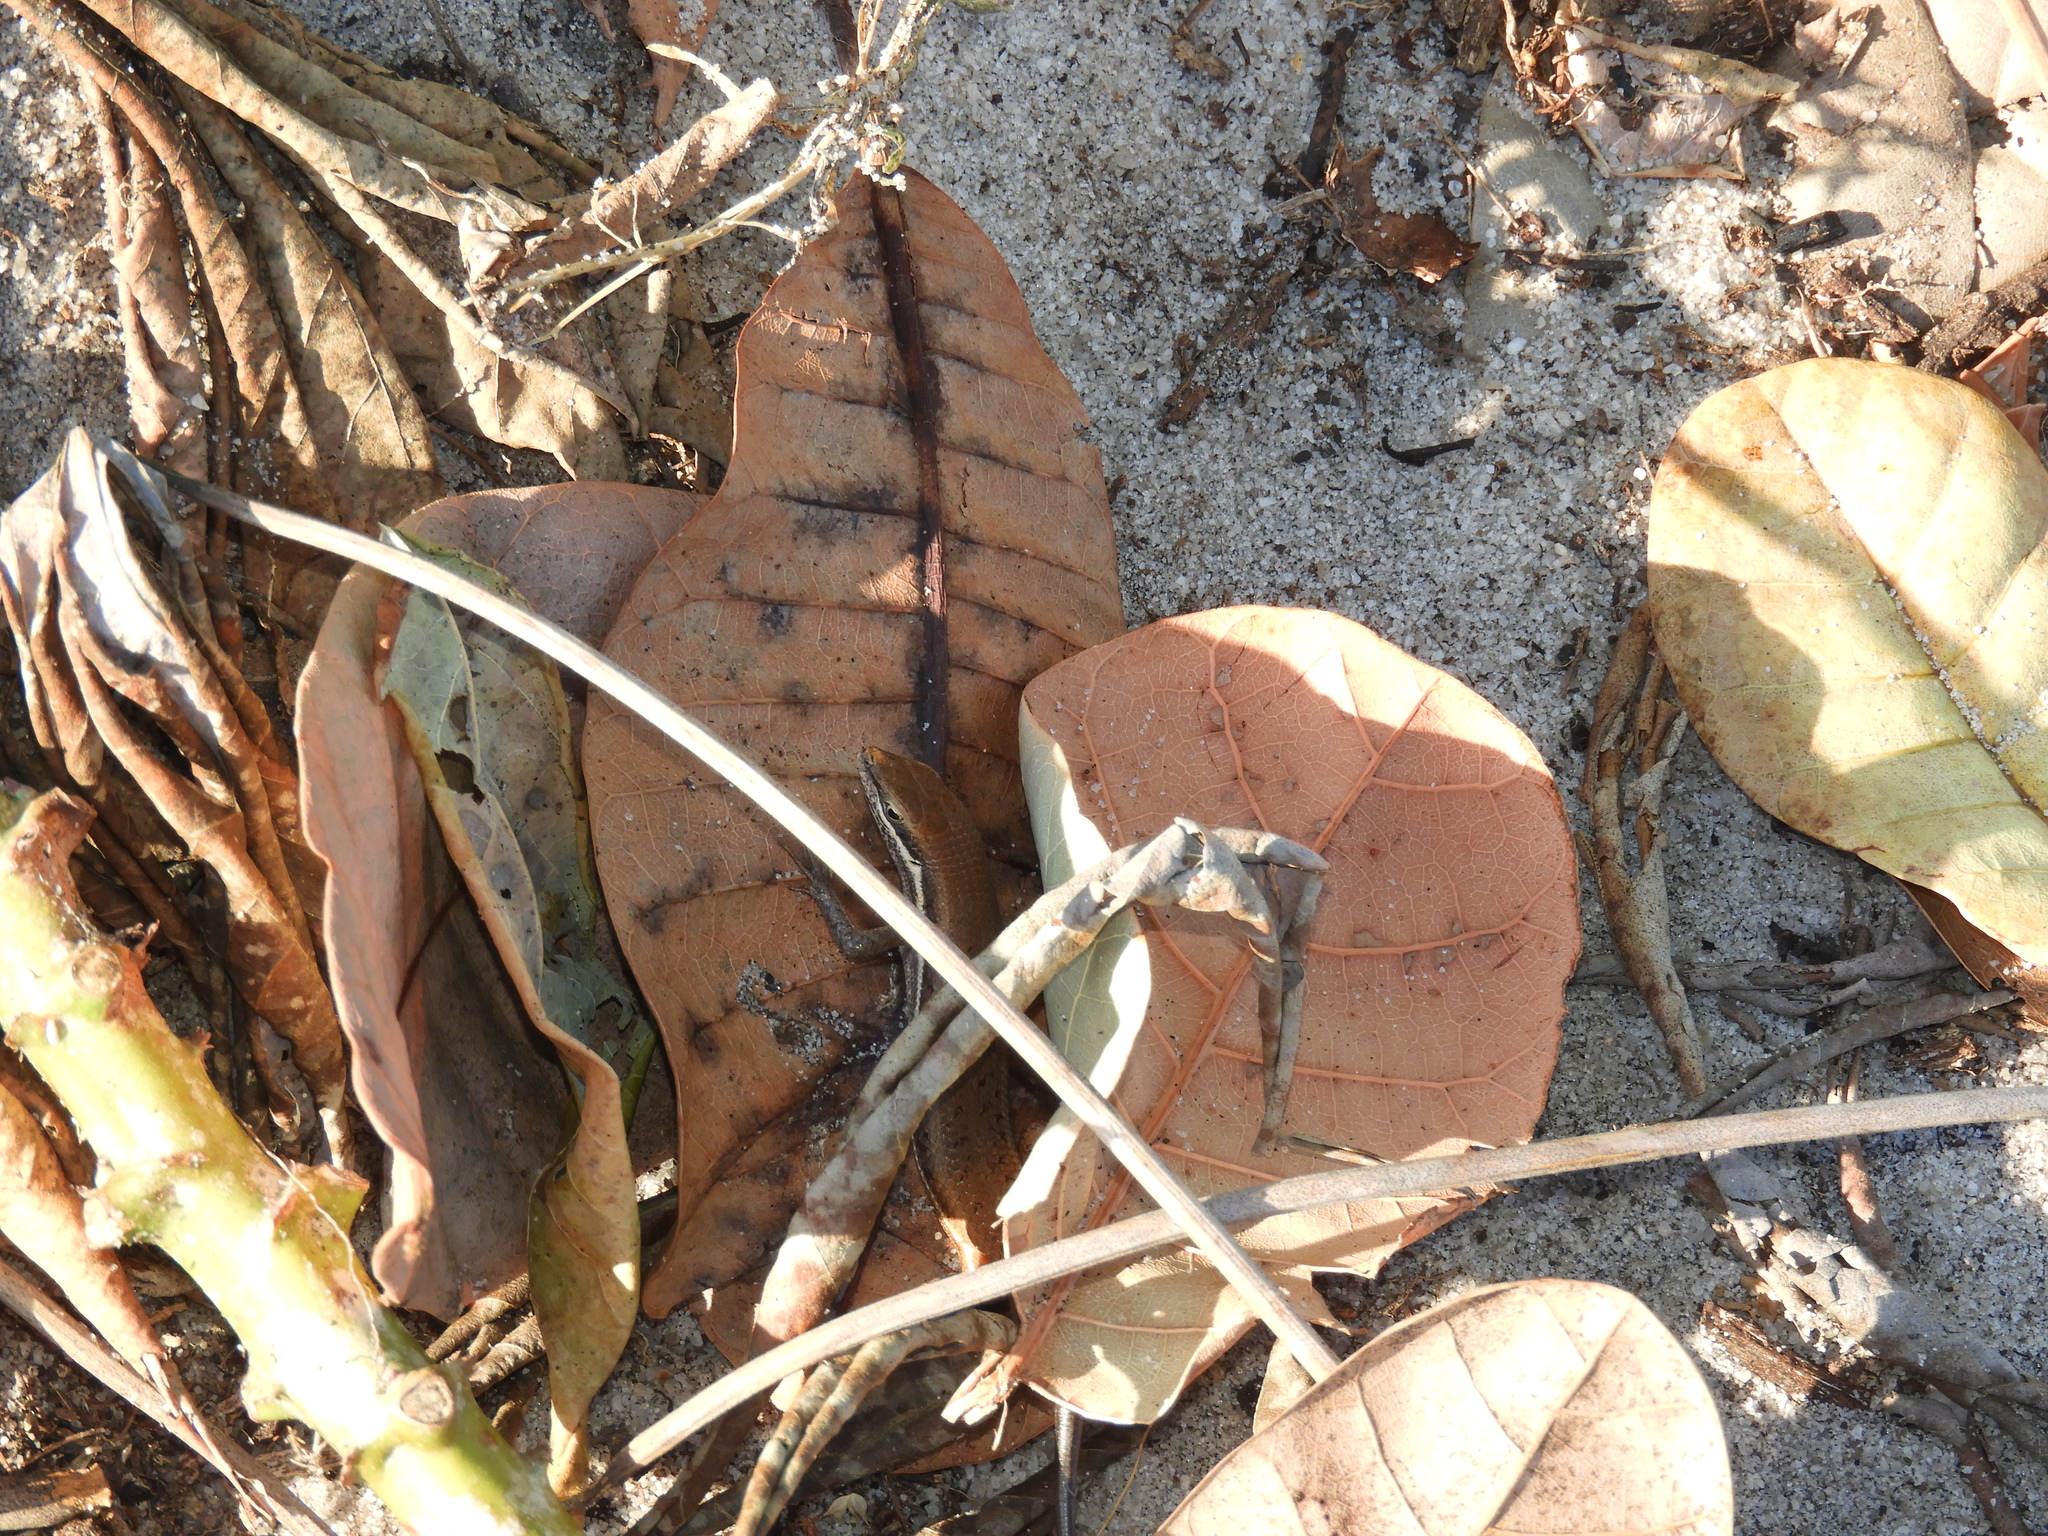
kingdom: Animalia
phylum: Chordata
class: Squamata
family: Scincidae
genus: Trachylepis
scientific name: Trachylepis varia
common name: Eastern variable skink
